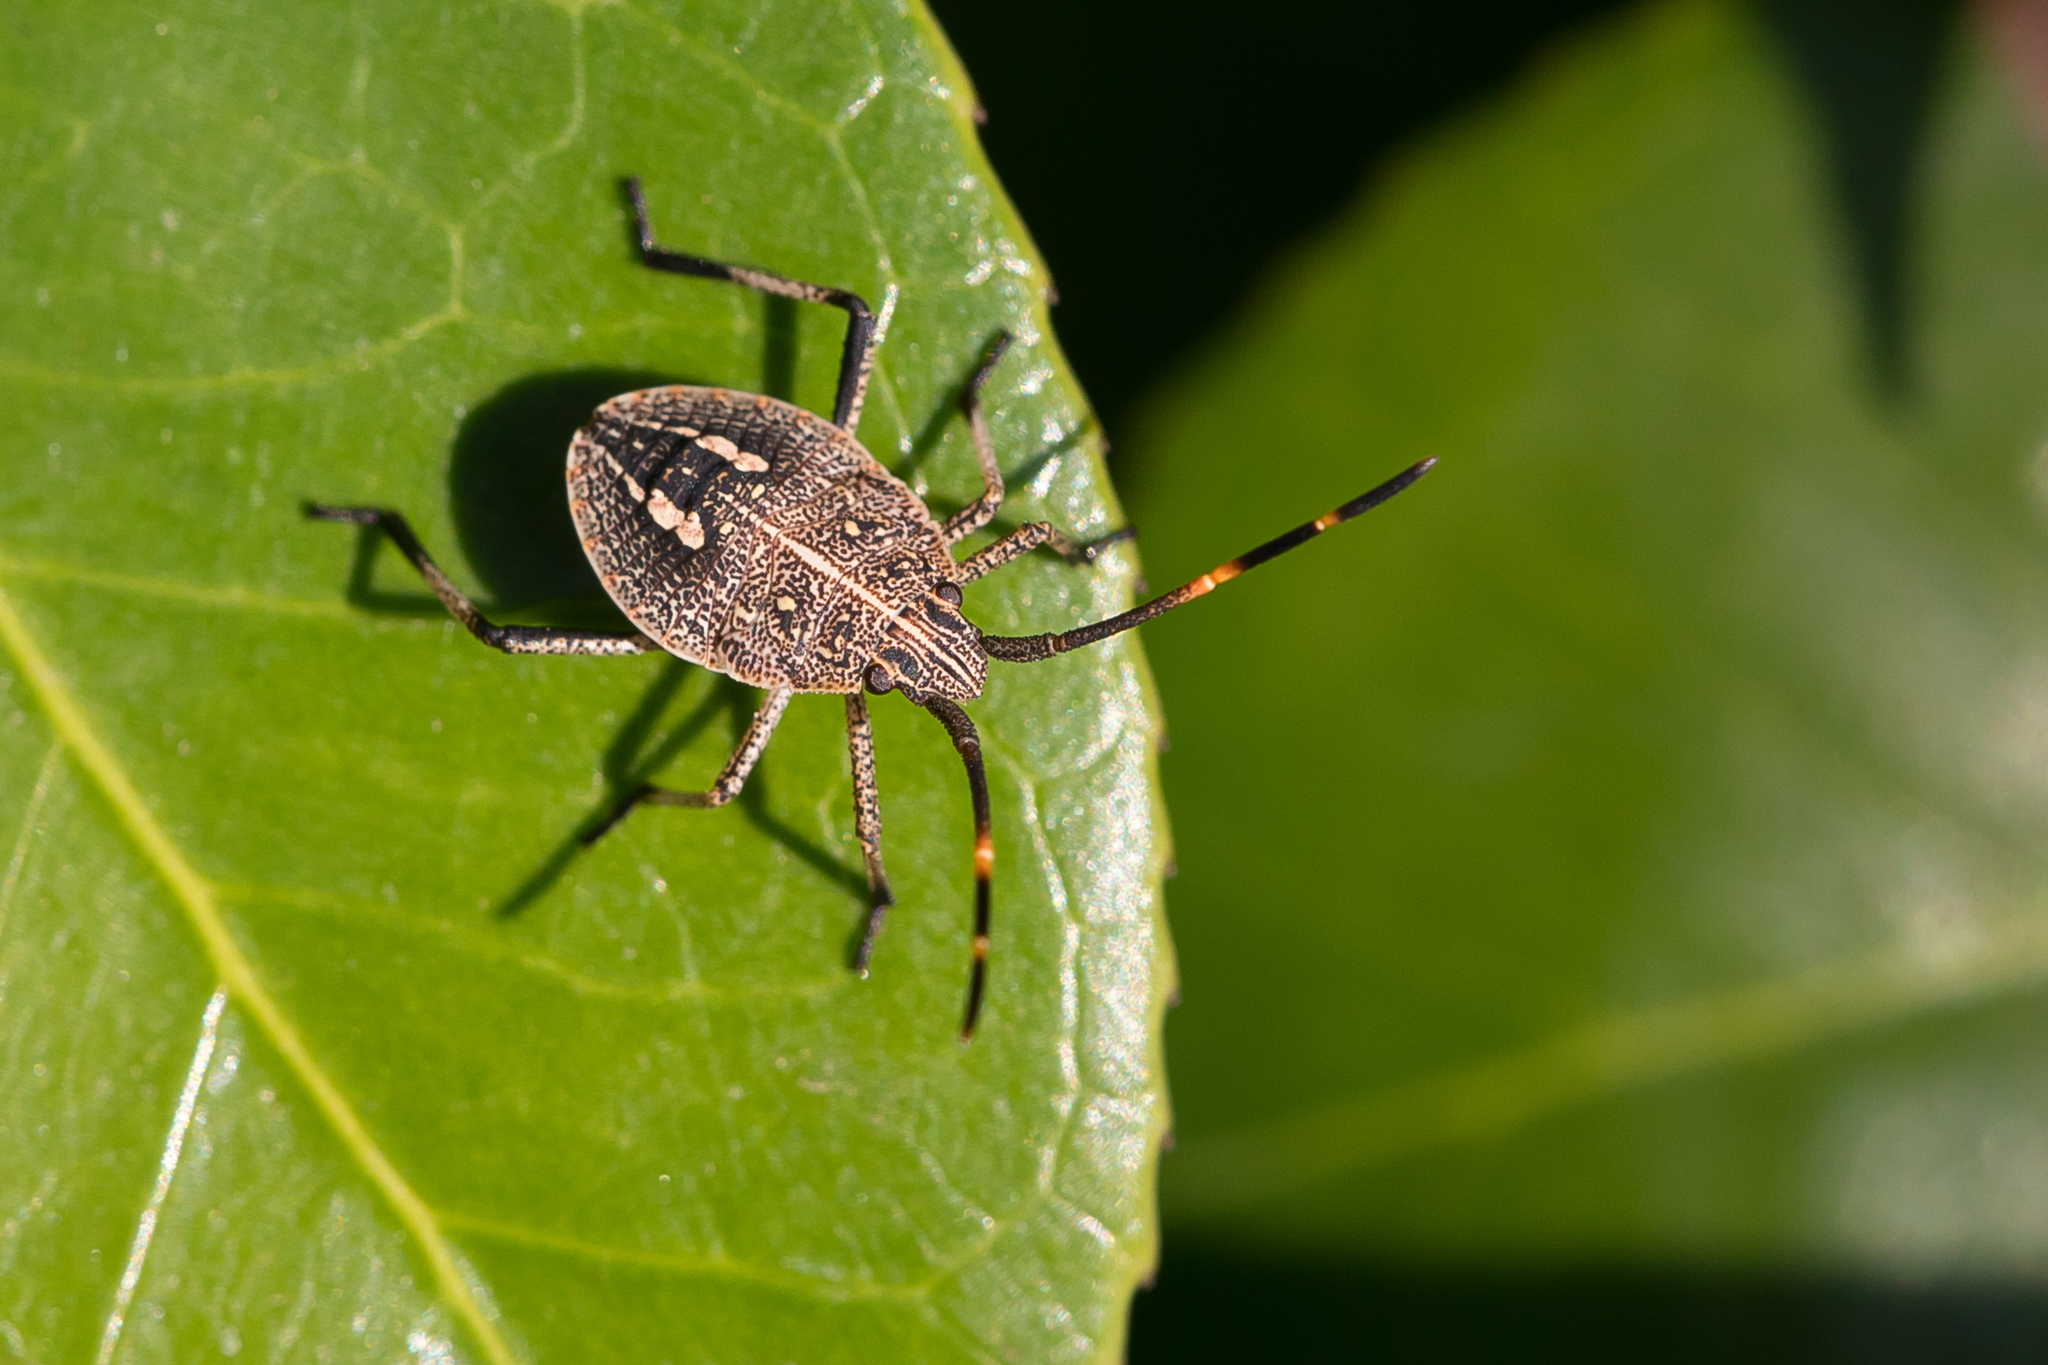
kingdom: Animalia
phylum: Arthropoda
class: Insecta
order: Hemiptera
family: Pentatomidae
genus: Poecilometis
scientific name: Poecilometis
